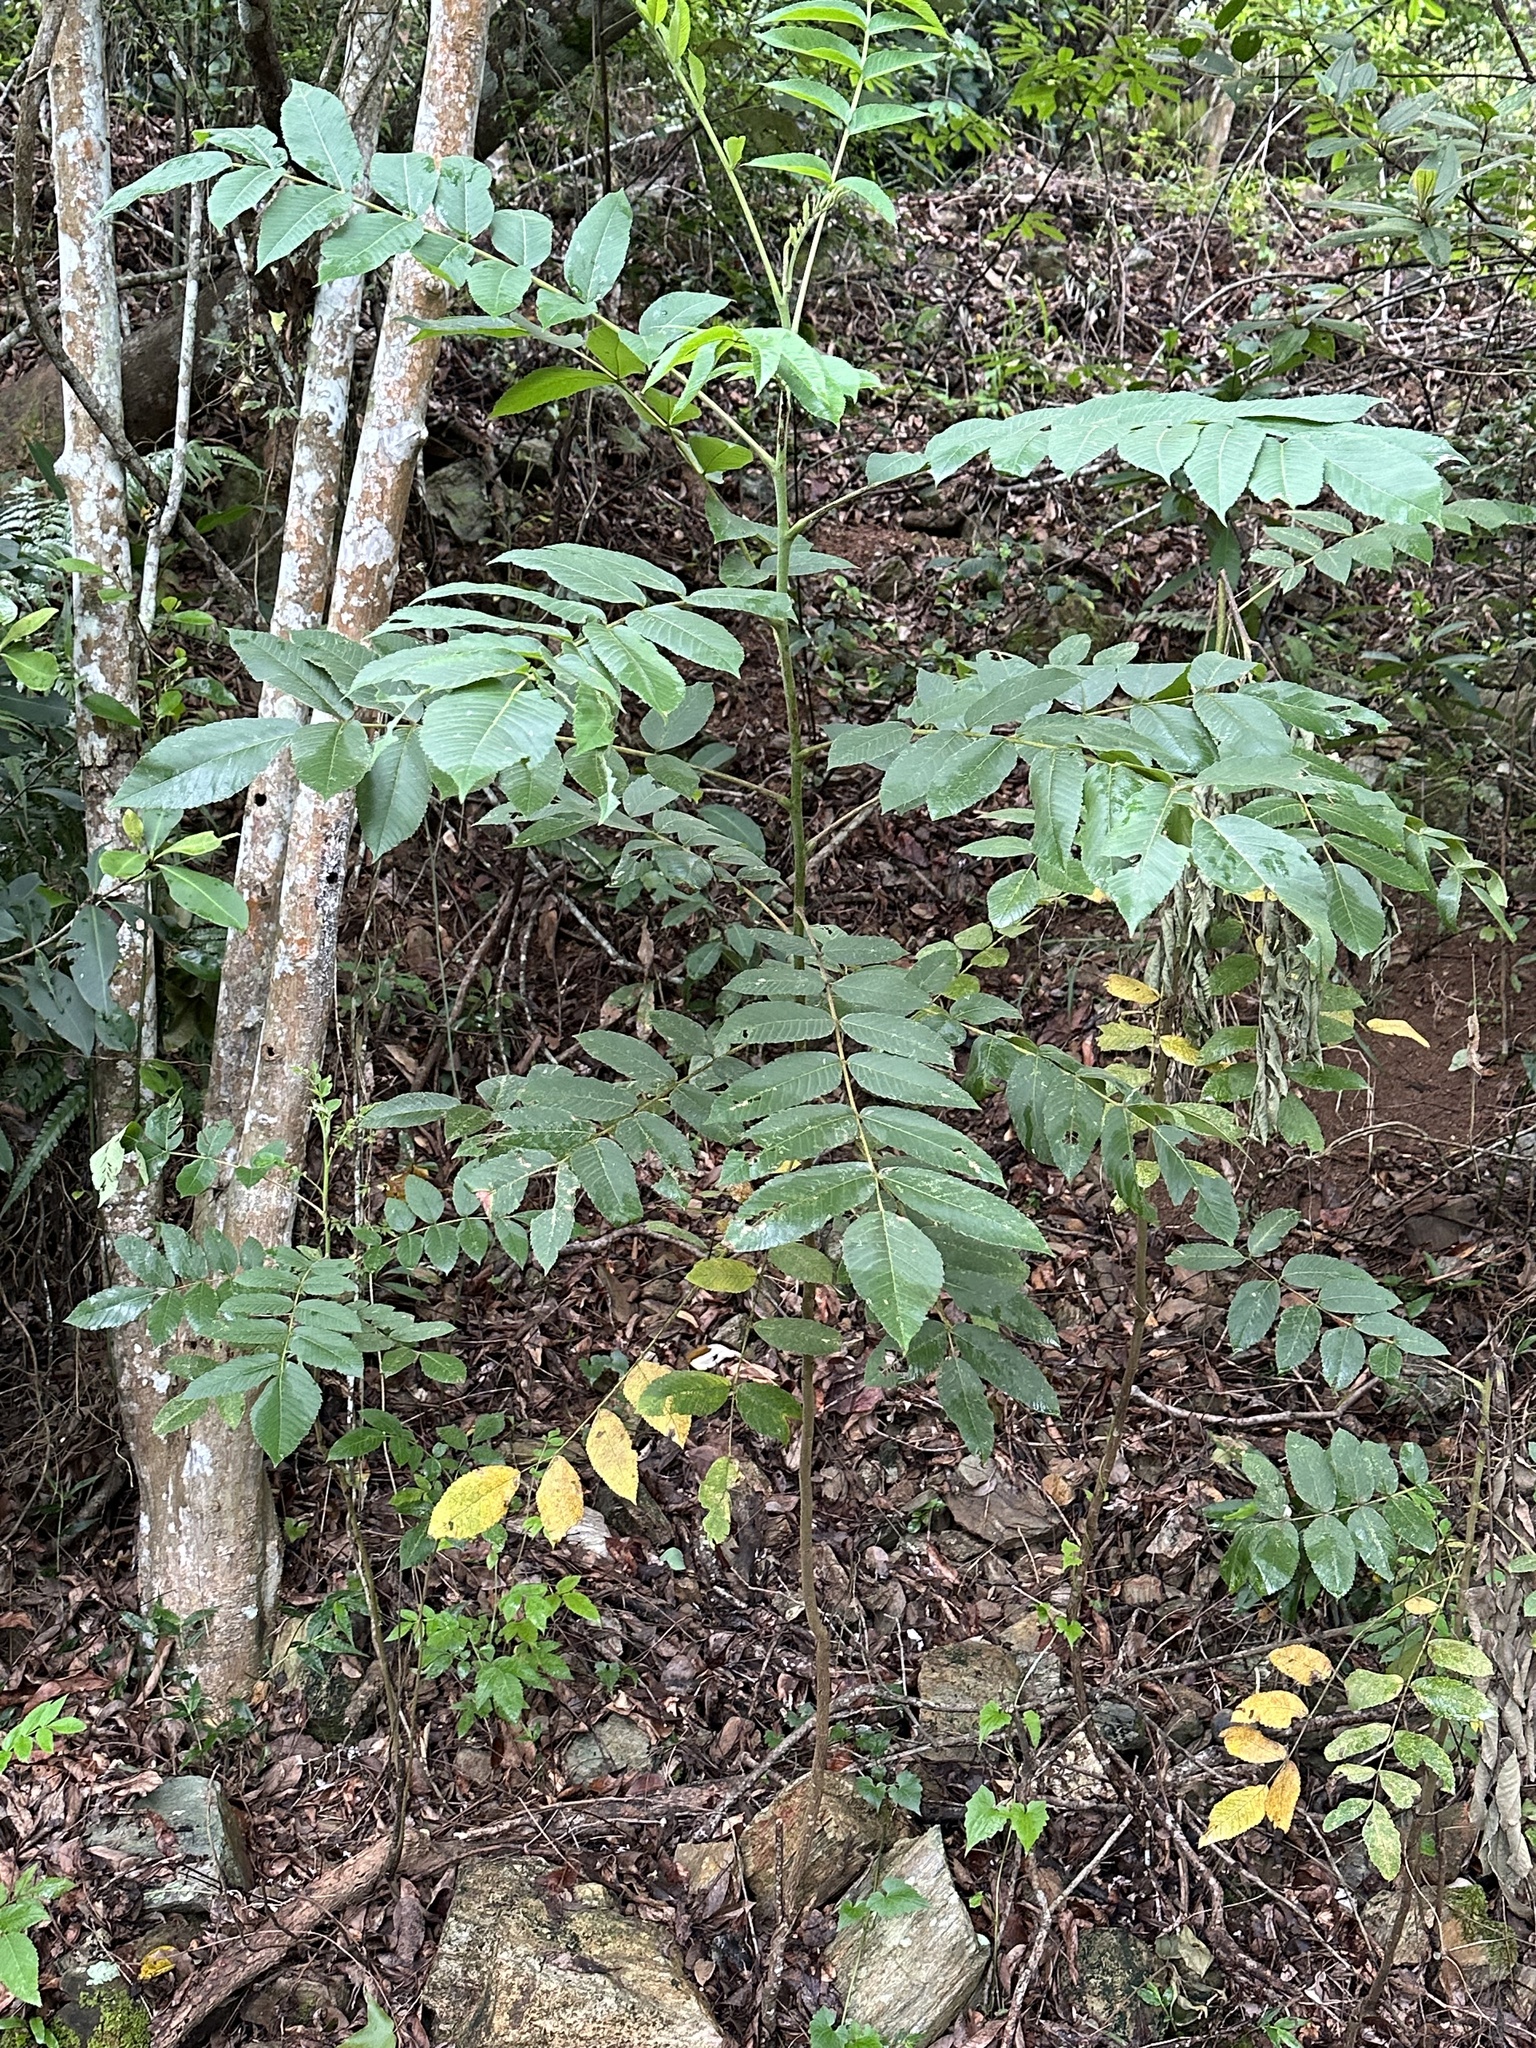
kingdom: Plantae
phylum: Tracheophyta
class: Magnoliopsida
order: Sapindales
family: Anacardiaceae
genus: Rhus
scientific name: Rhus chinensis
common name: Chinese gall
